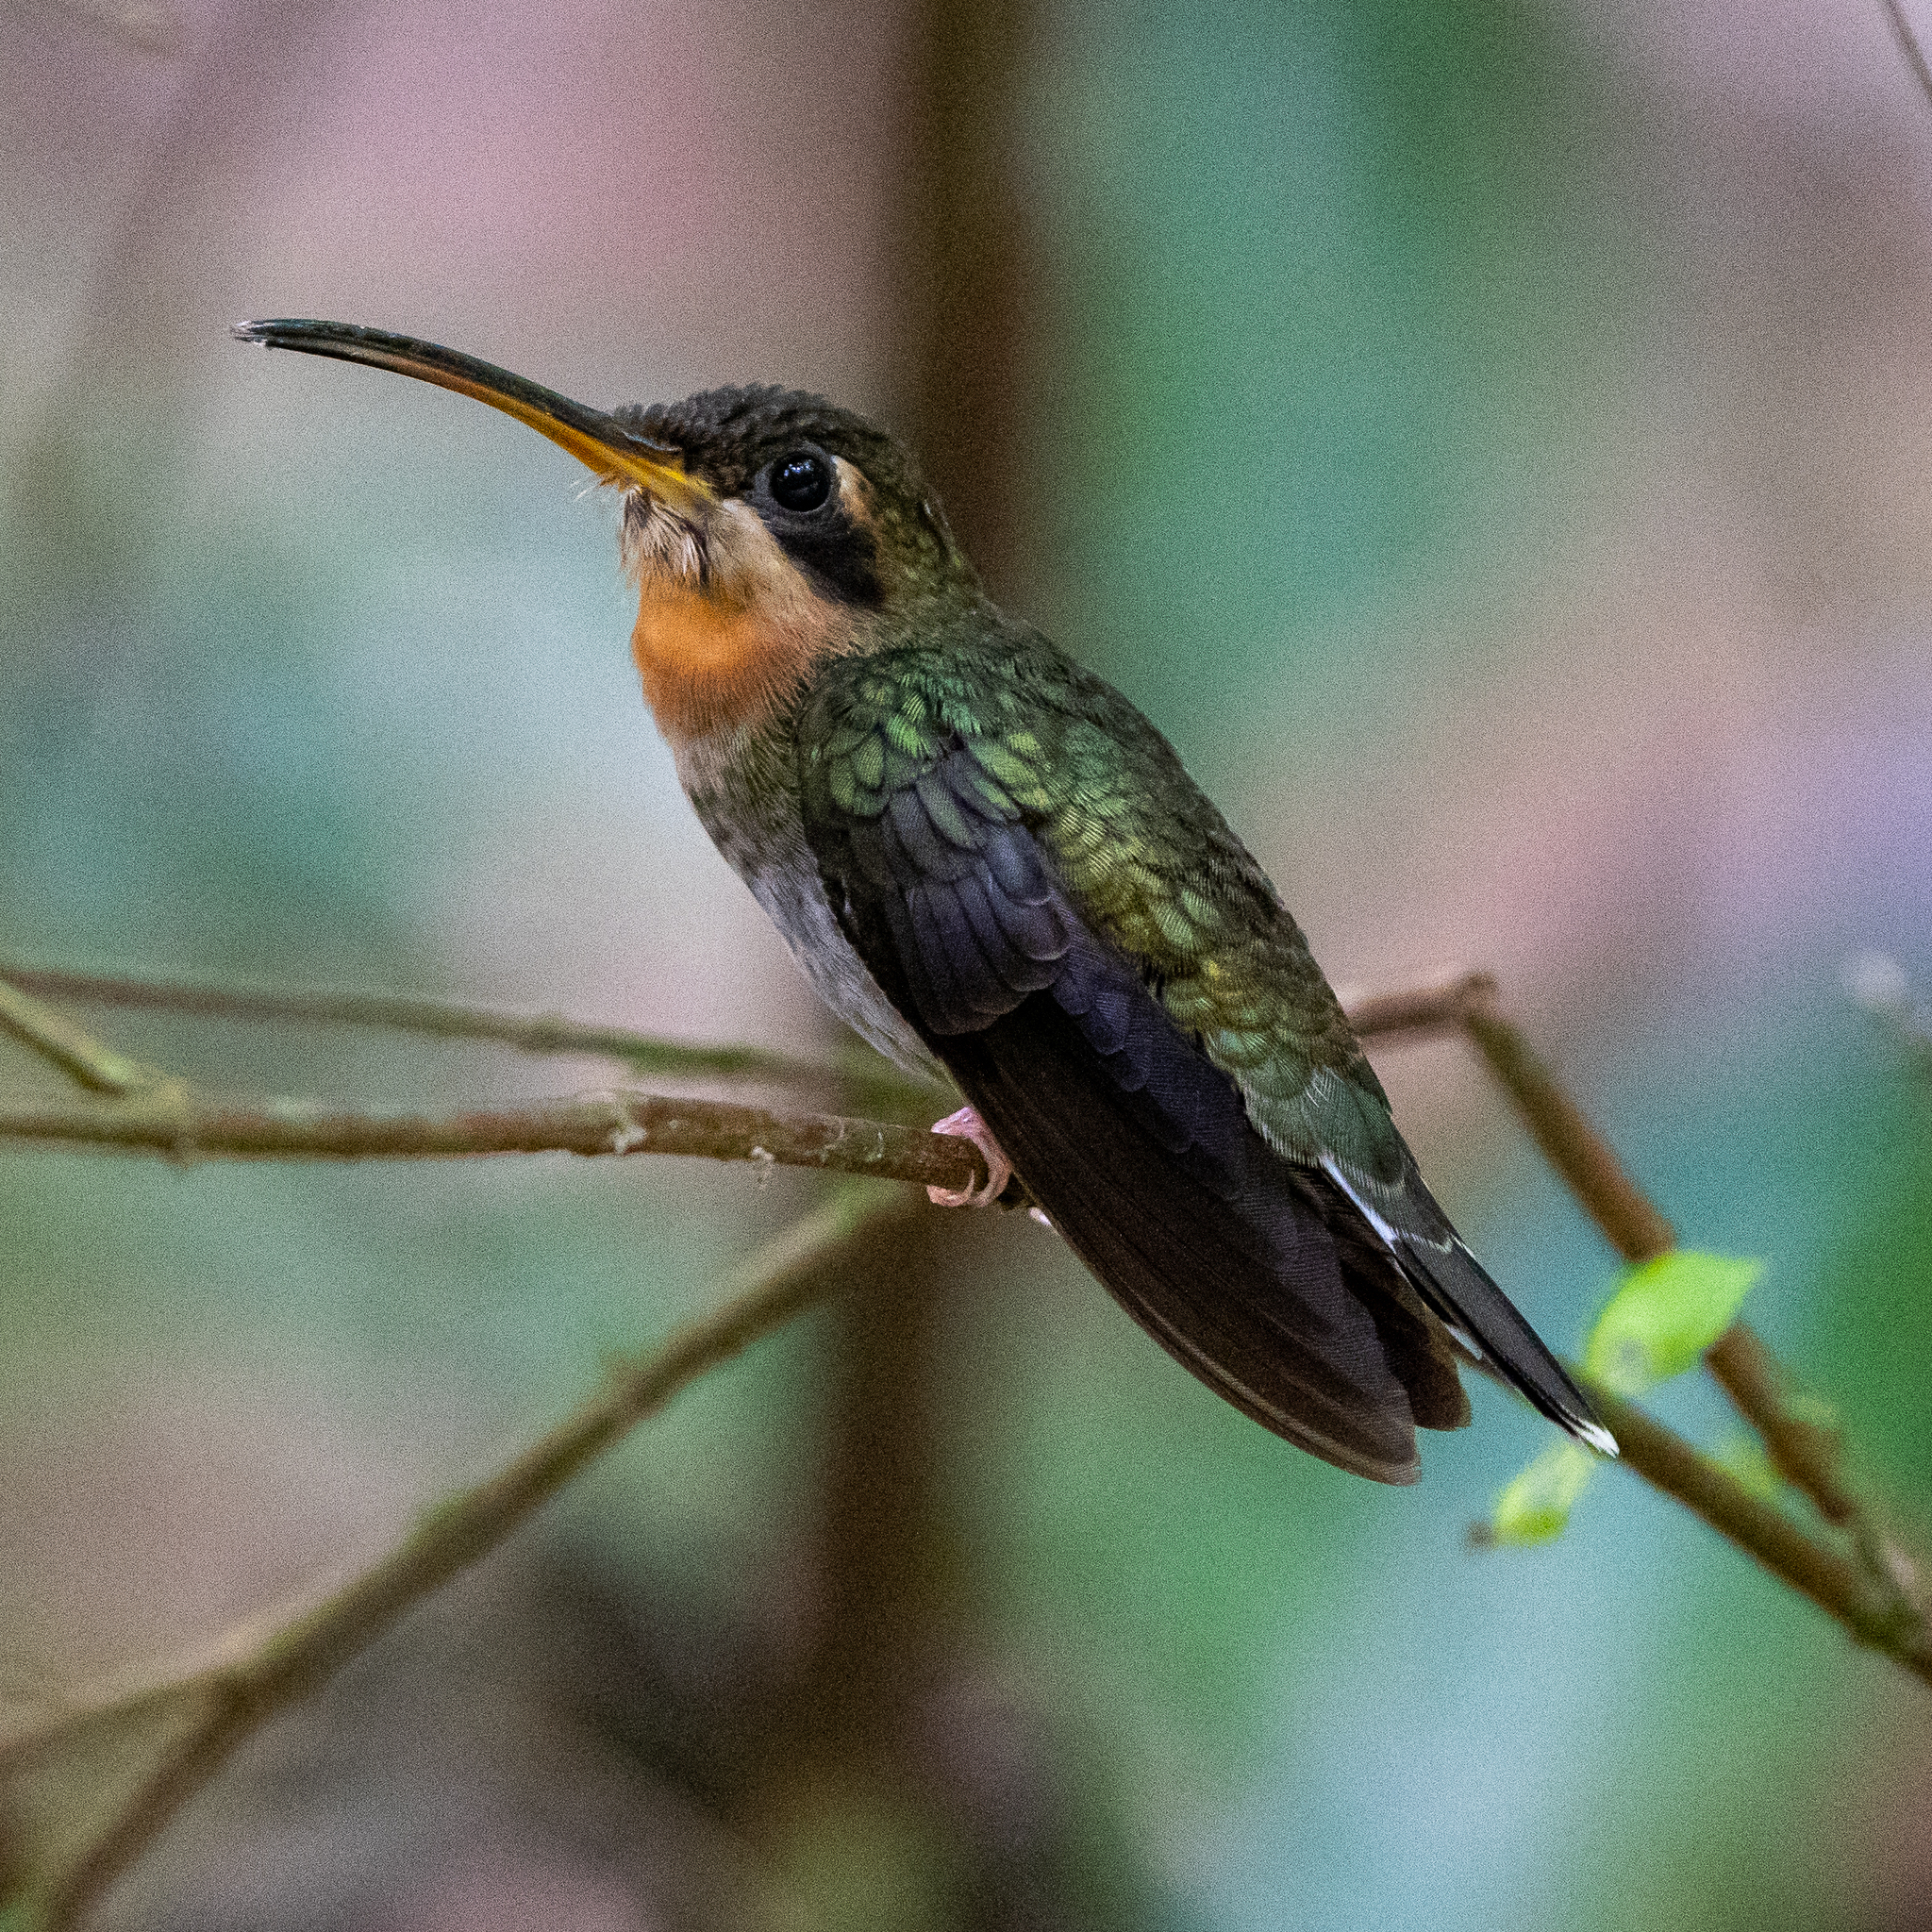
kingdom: Animalia
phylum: Chordata
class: Aves
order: Apodiformes
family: Trochilidae
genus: Threnetes
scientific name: Threnetes ruckeri
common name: Band-tailed barbthroat
